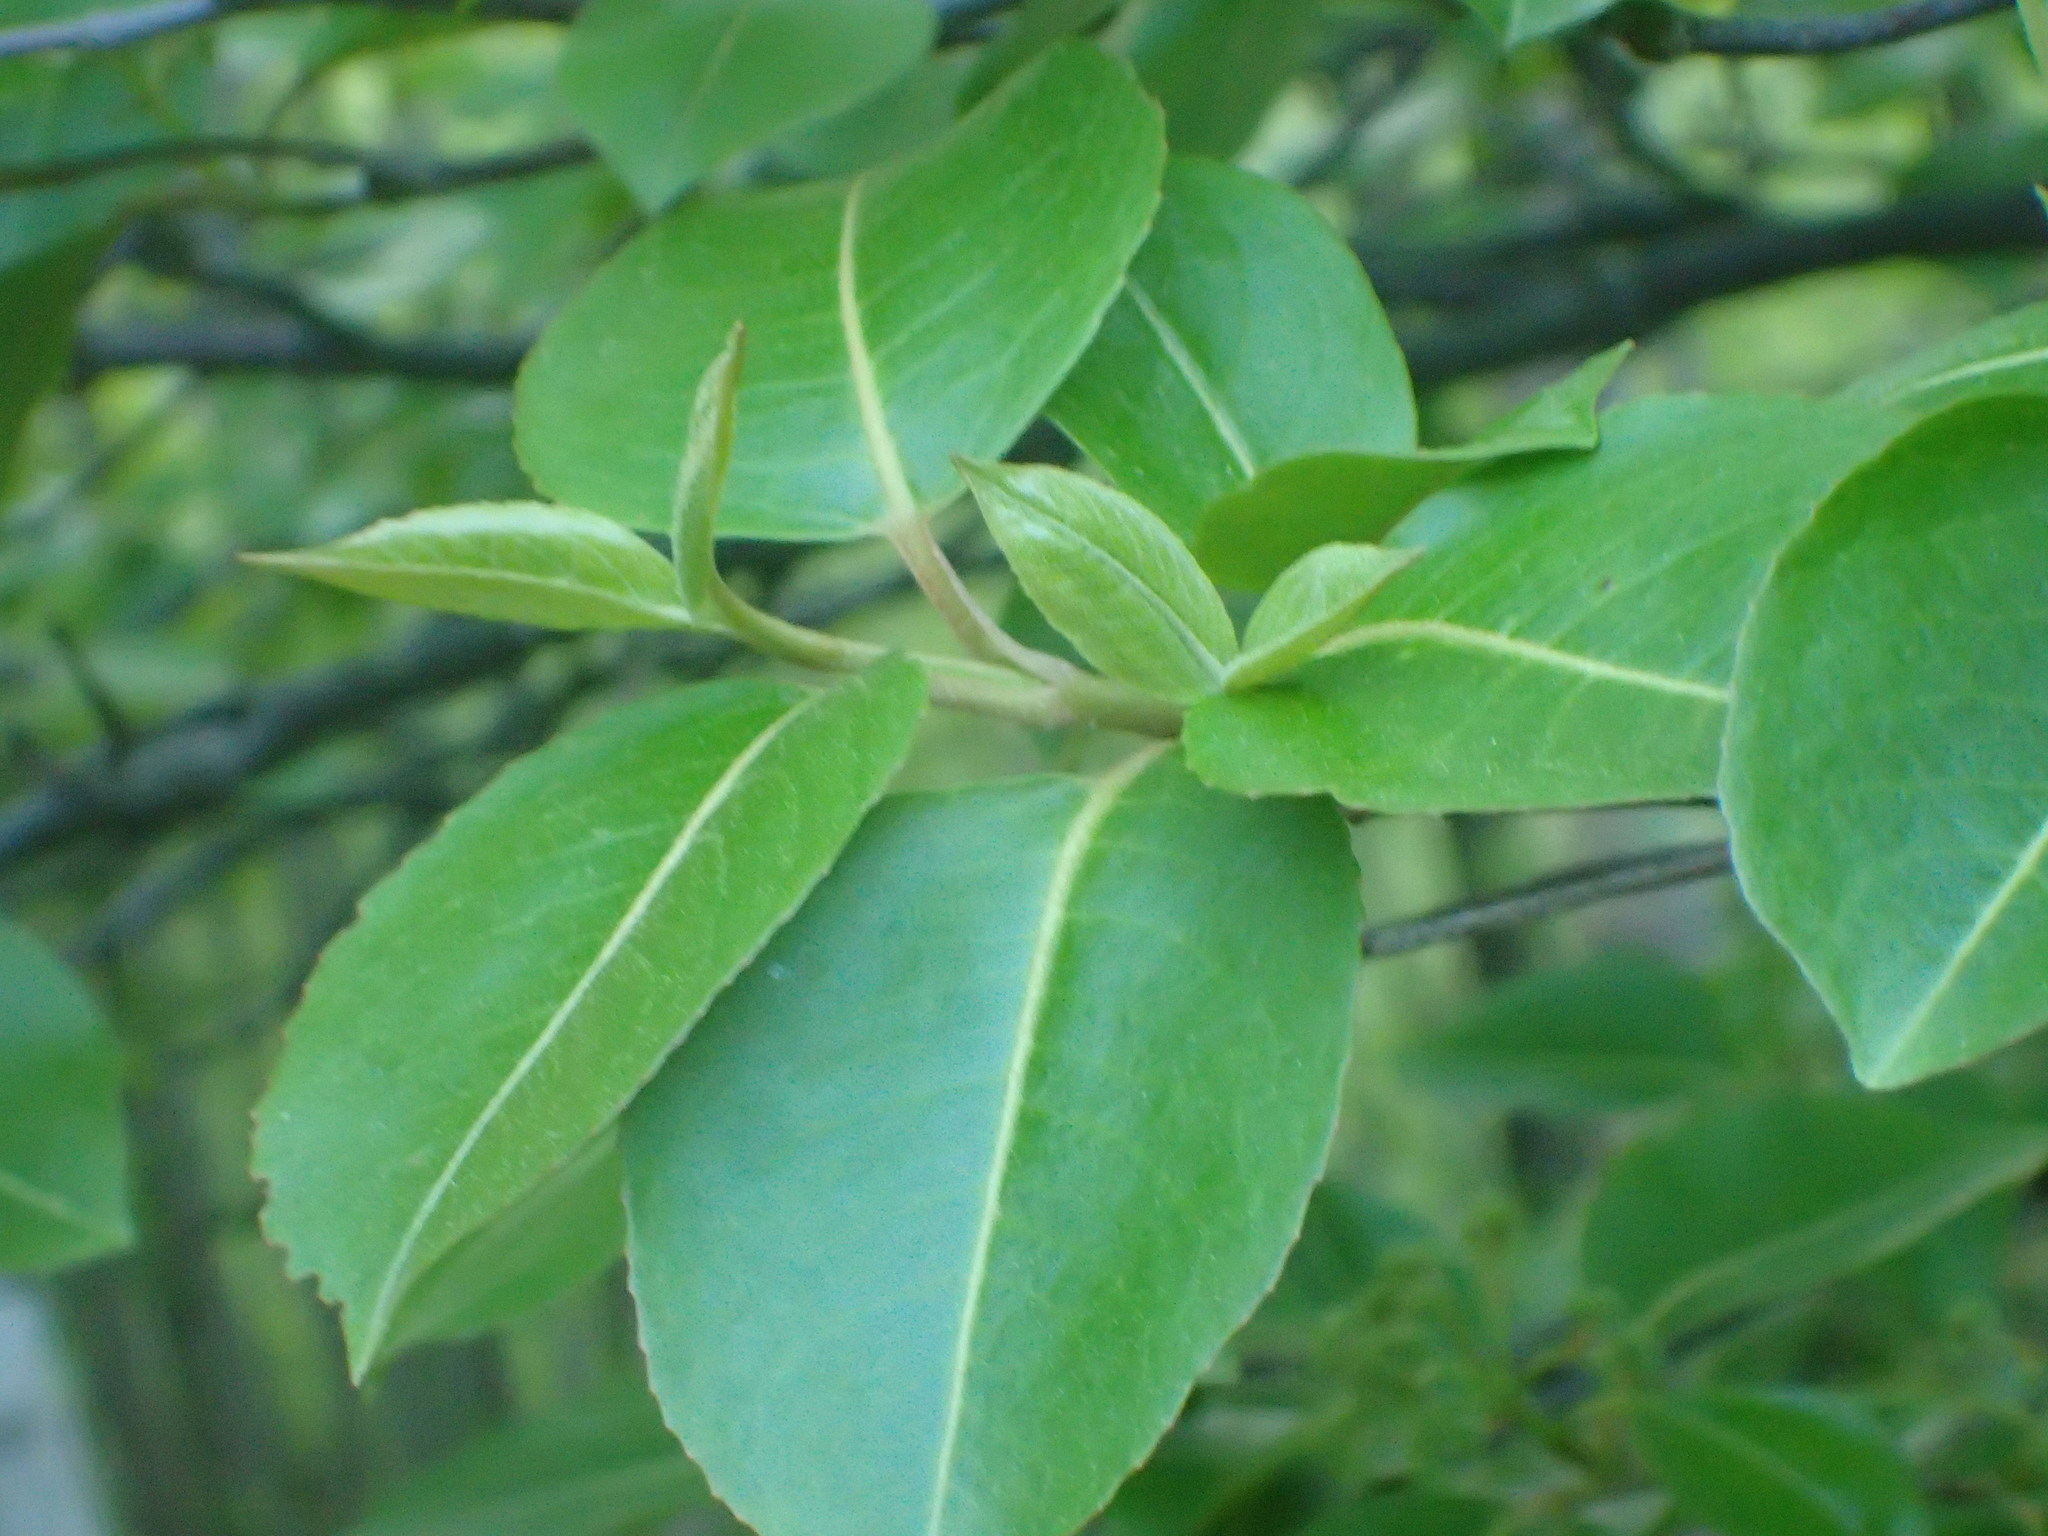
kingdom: Plantae
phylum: Tracheophyta
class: Magnoliopsida
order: Dipsacales
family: Viburnaceae
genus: Viburnum
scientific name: Viburnum cassinoides
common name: Swamp haw
